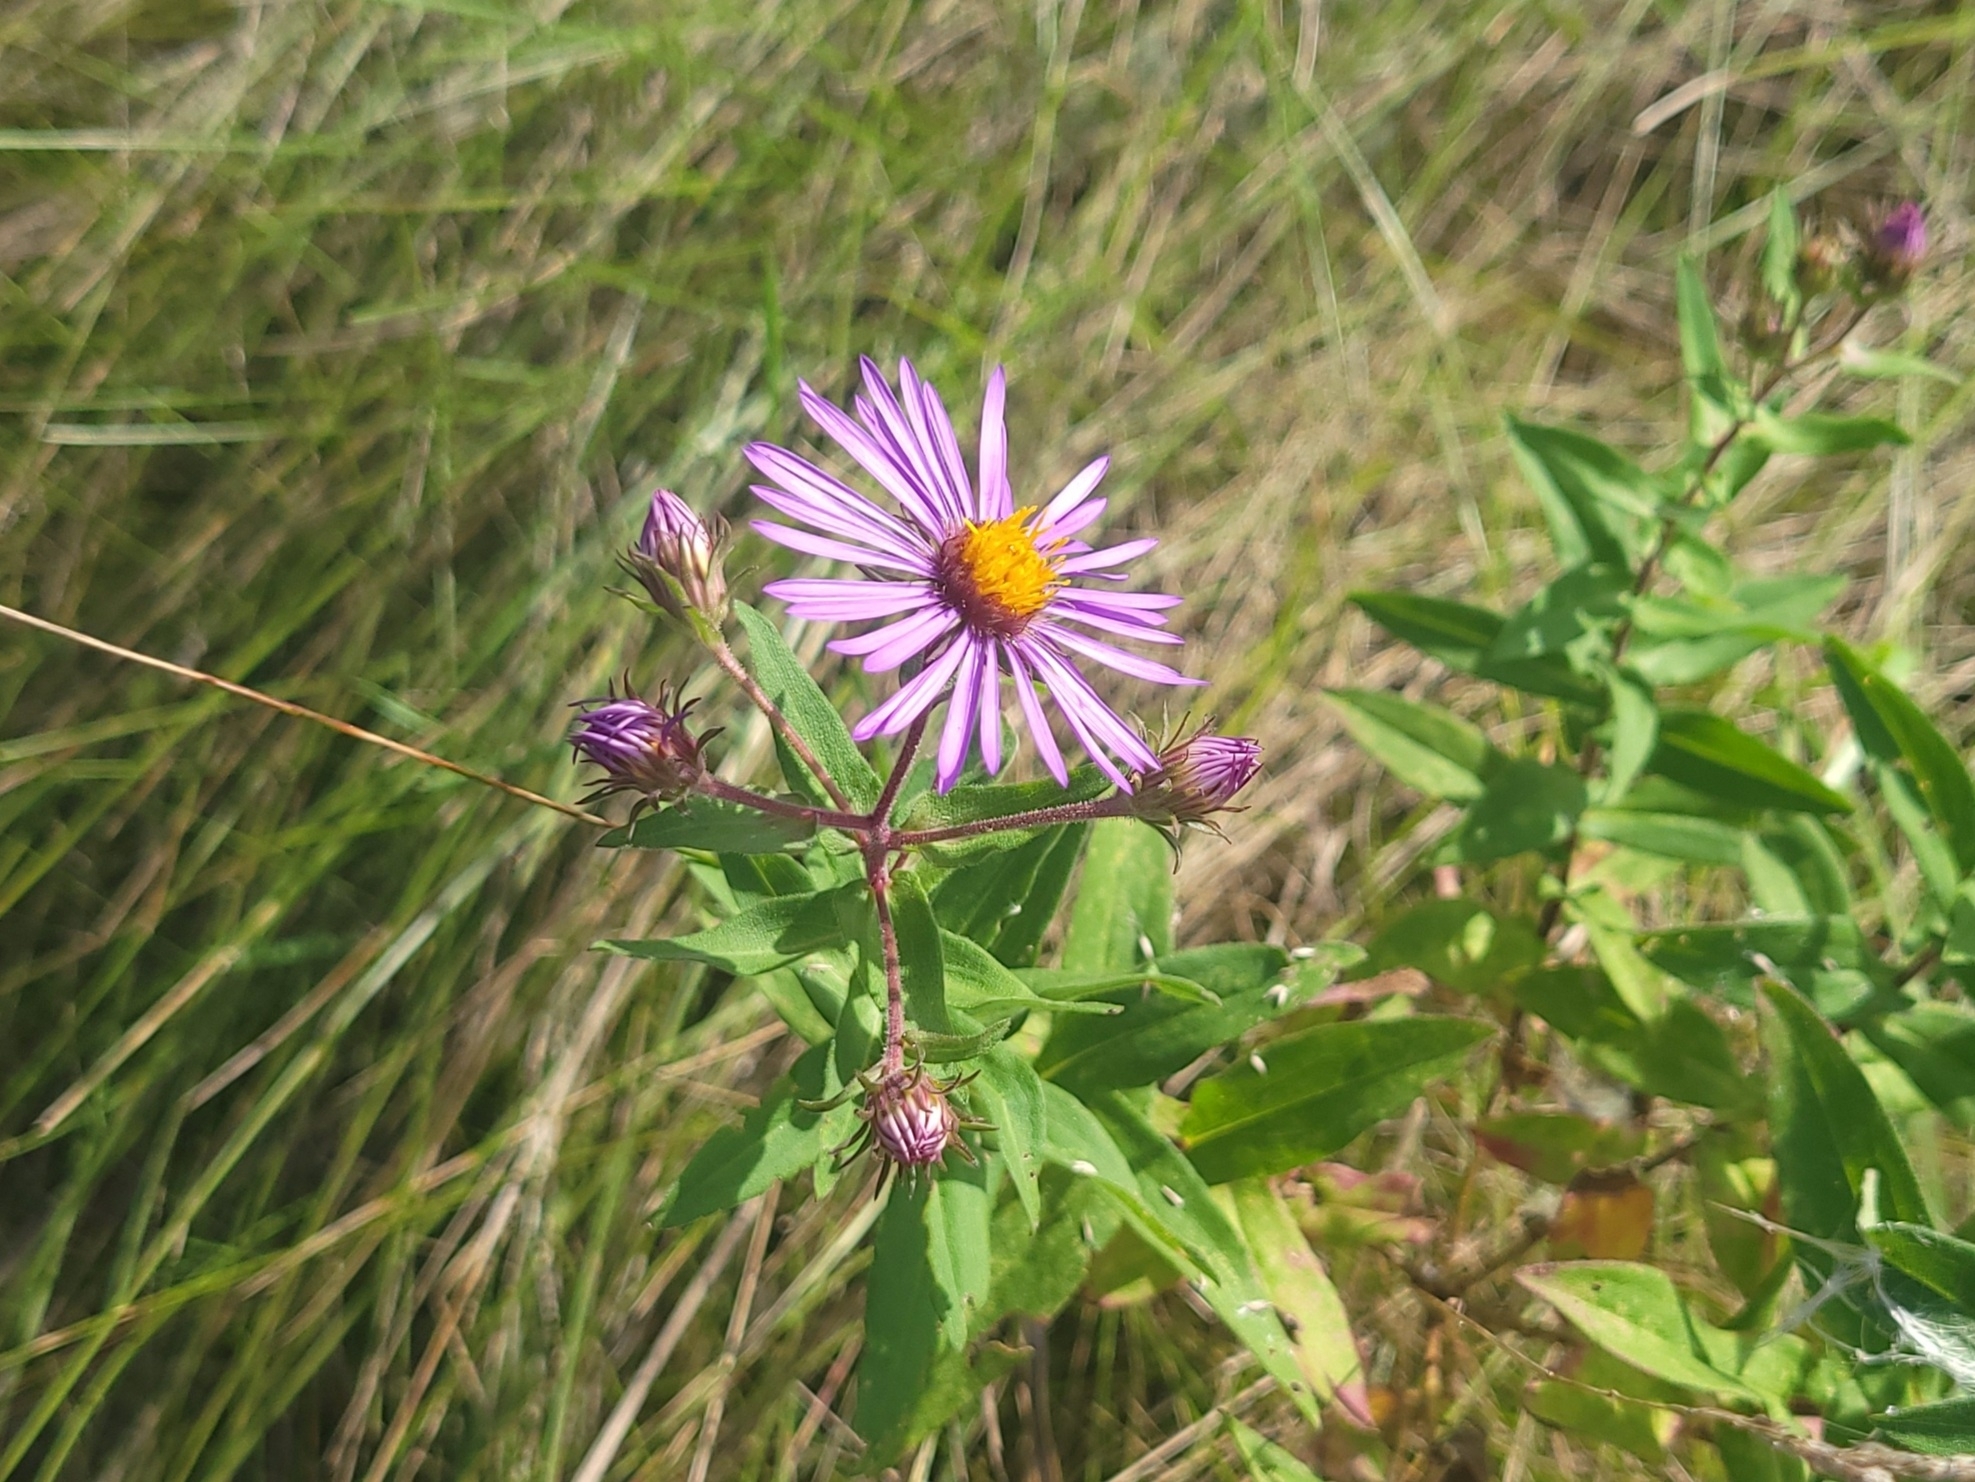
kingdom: Plantae
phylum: Tracheophyta
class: Magnoliopsida
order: Asterales
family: Asteraceae
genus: Symphyotrichum
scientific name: Symphyotrichum novae-angliae
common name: Michaelmas daisy
